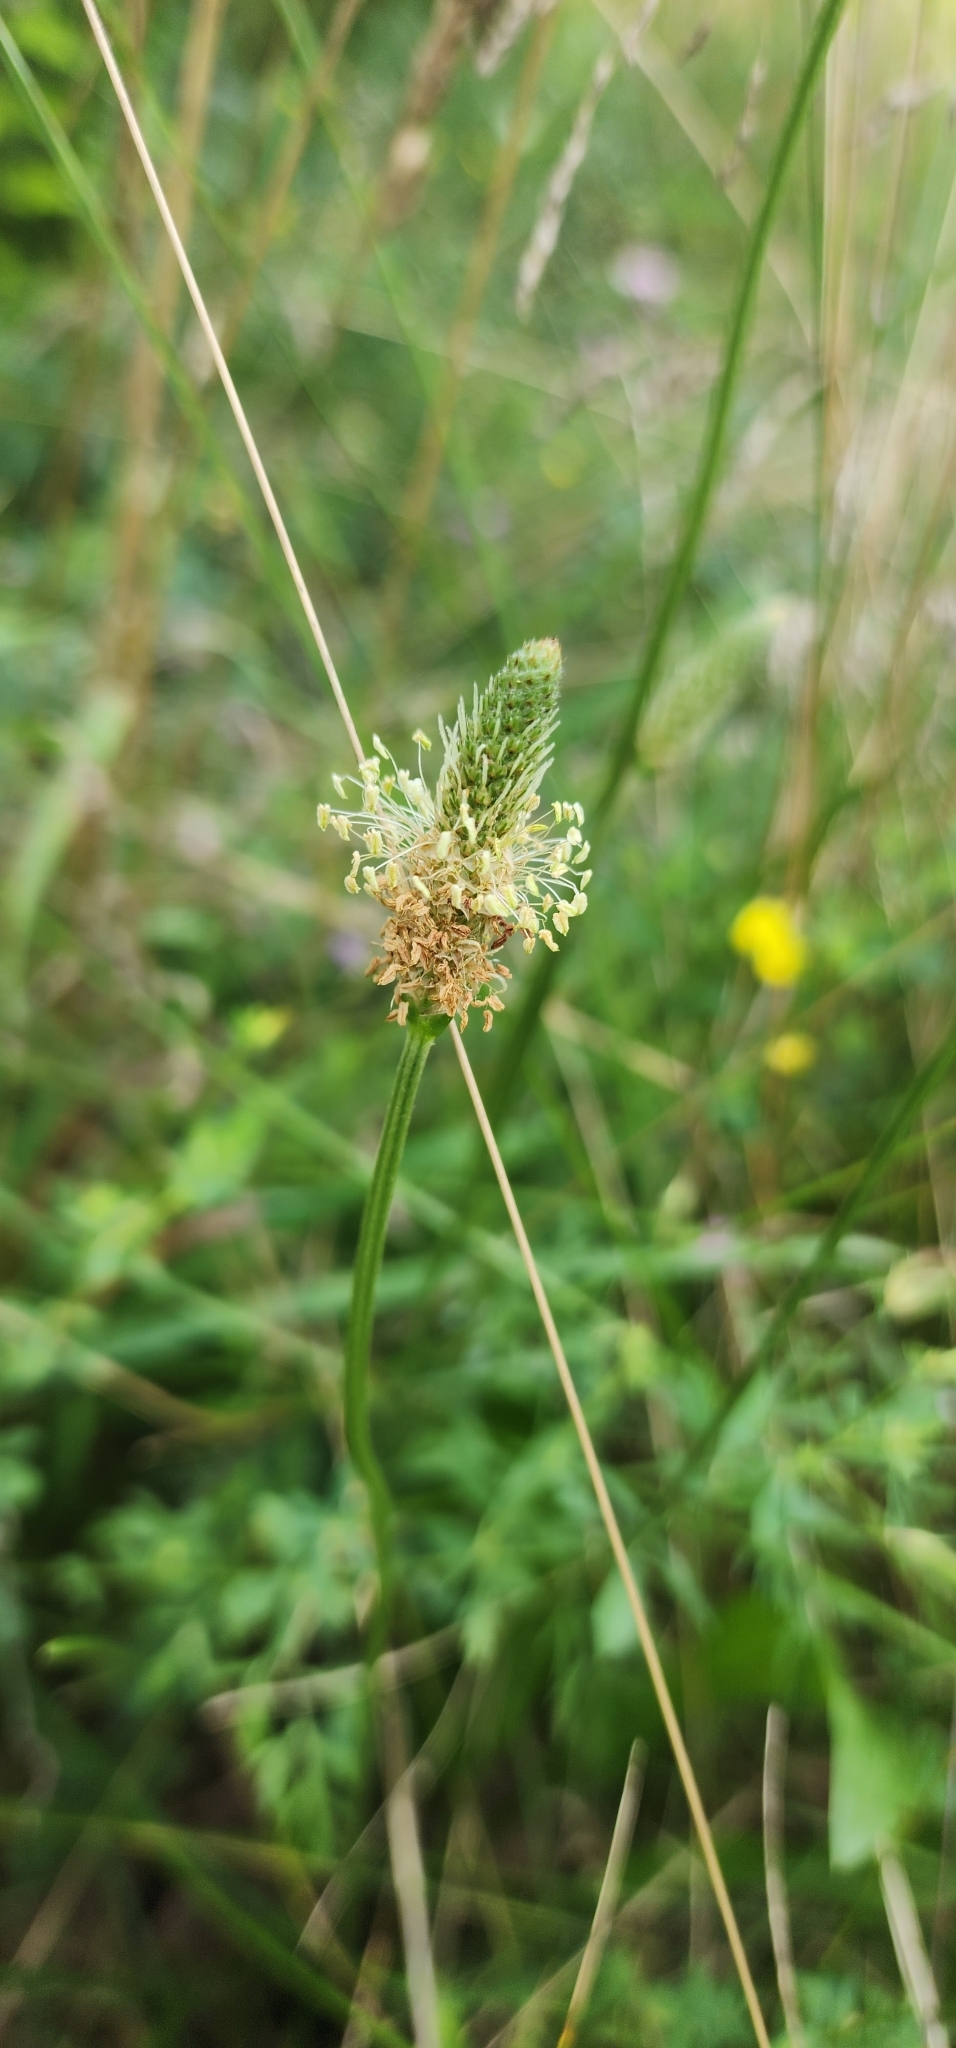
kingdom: Plantae
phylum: Tracheophyta
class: Magnoliopsida
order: Lamiales
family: Plantaginaceae
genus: Plantago
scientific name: Plantago lanceolata
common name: Ribwort plantain
